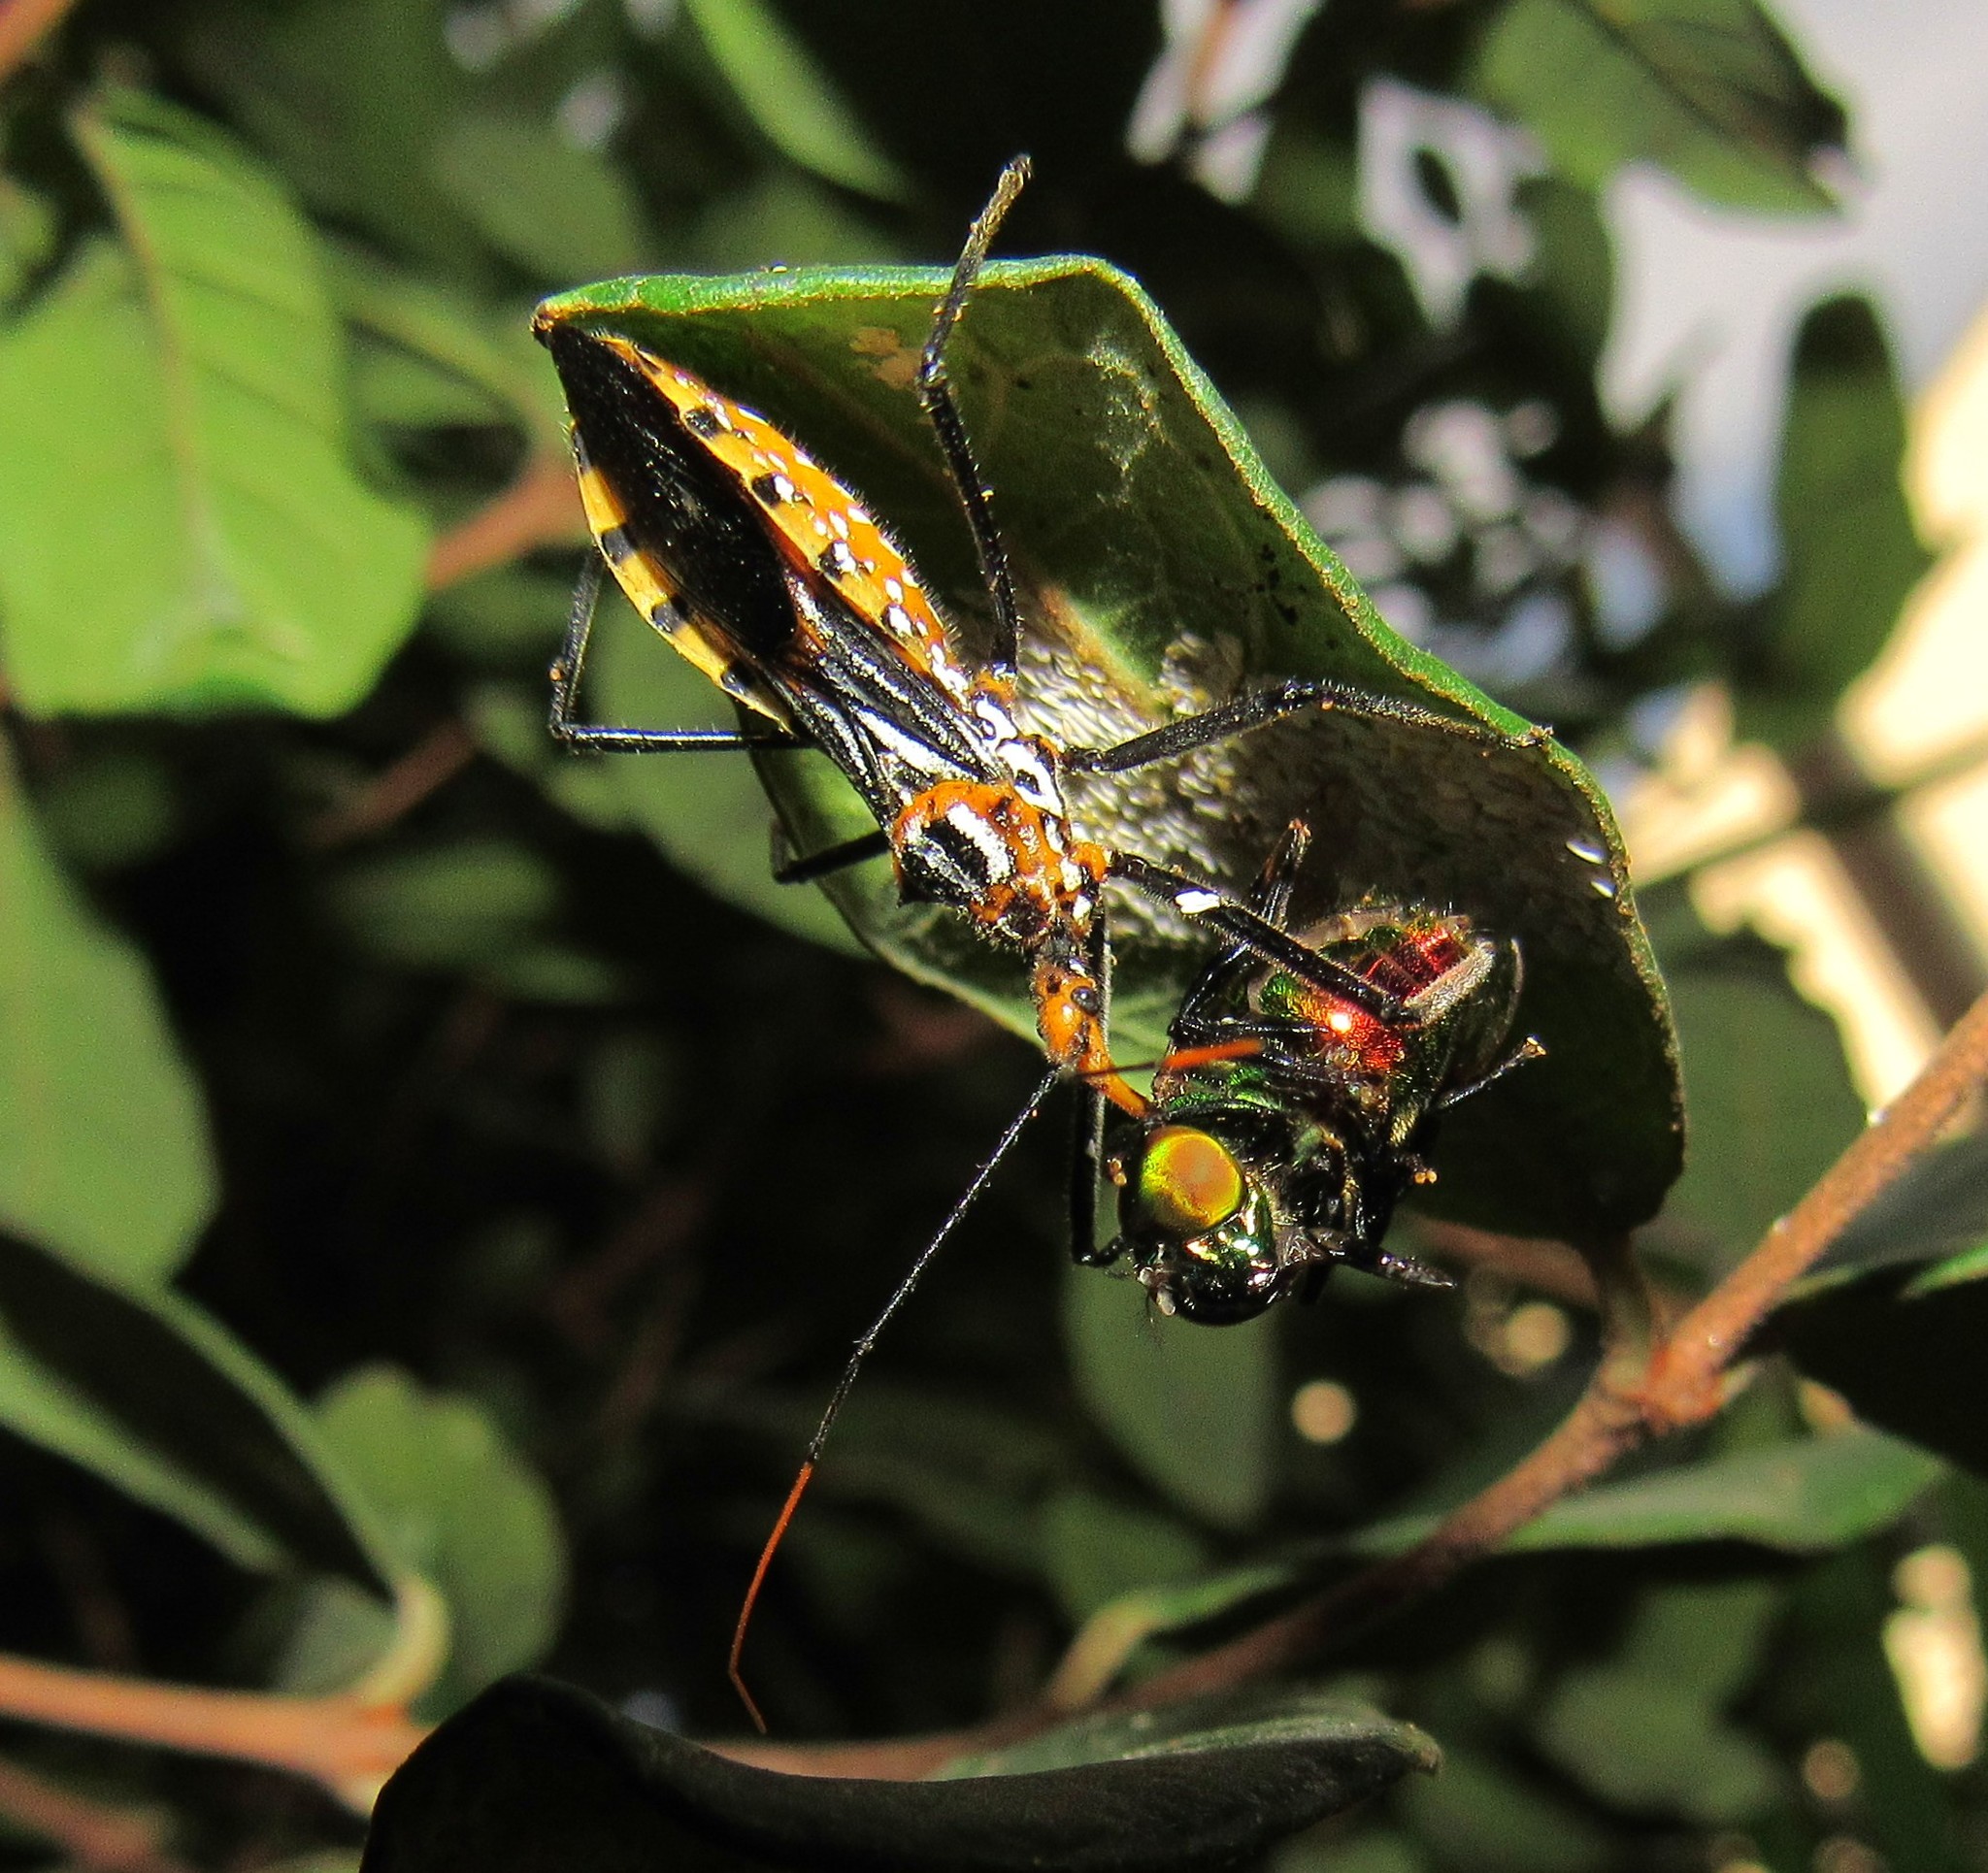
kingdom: Animalia
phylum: Arthropoda
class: Insecta
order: Hemiptera
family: Reduviidae
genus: Zelus
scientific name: Zelus leucogrammus
